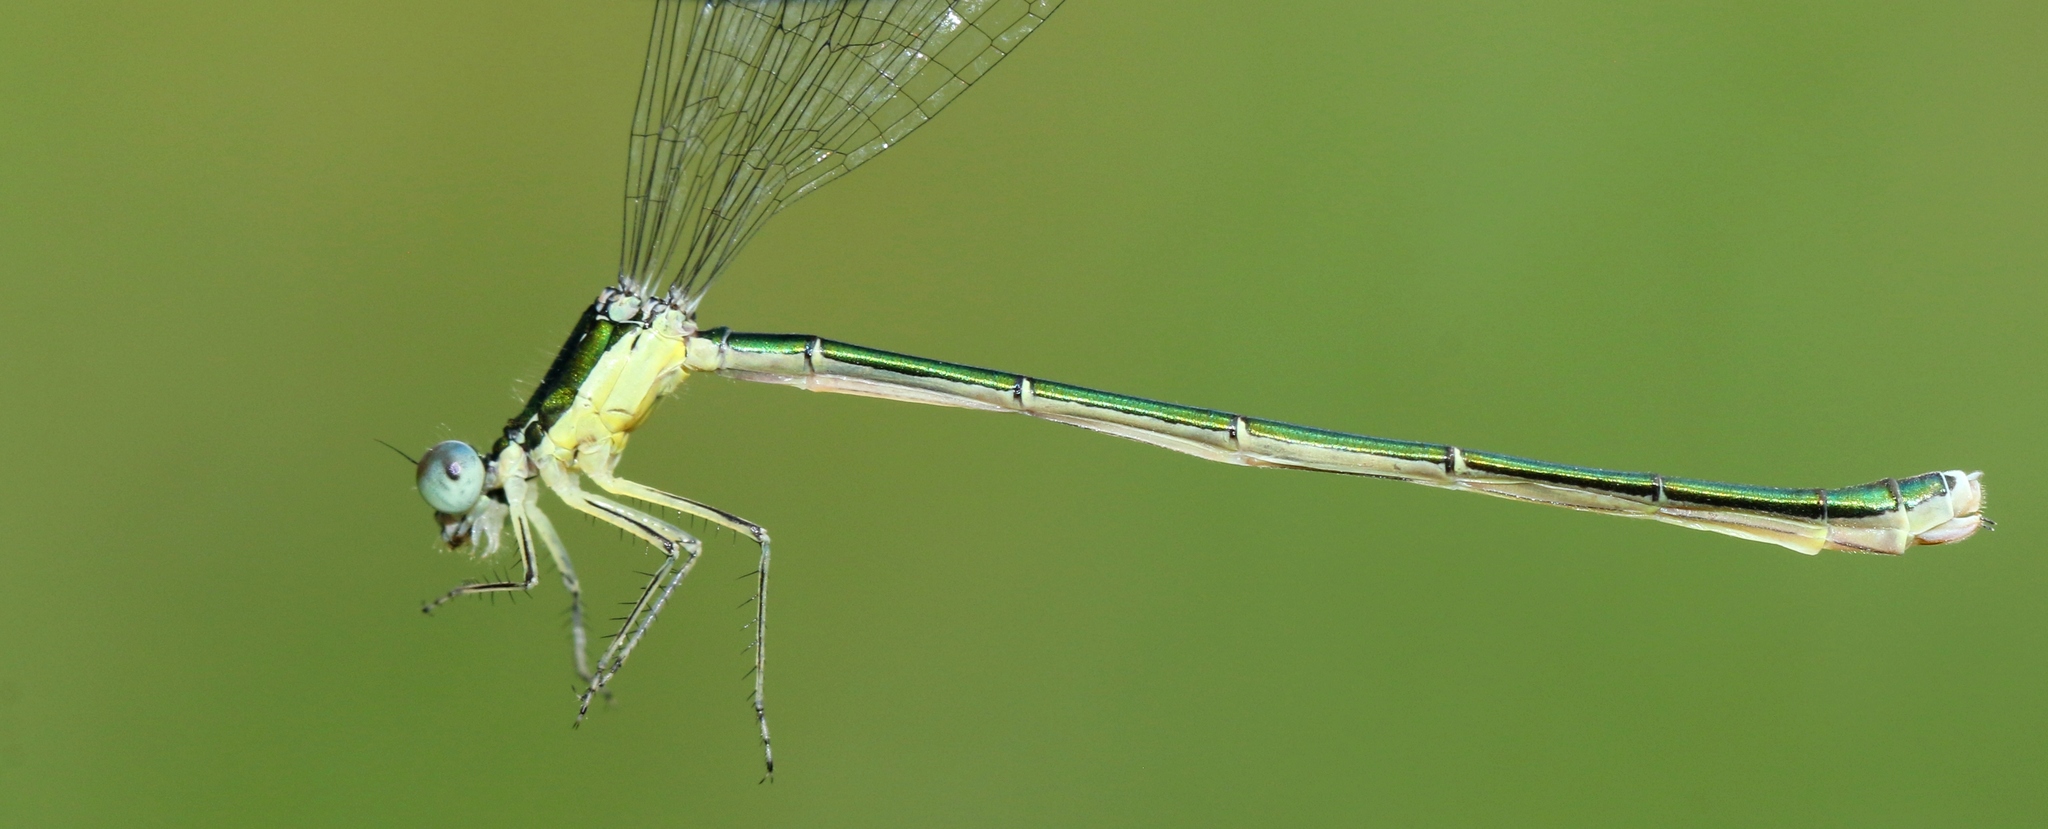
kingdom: Animalia
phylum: Arthropoda
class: Insecta
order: Odonata
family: Coenagrionidae
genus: Nehalennia
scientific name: Nehalennia irene
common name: Sedge sprite
